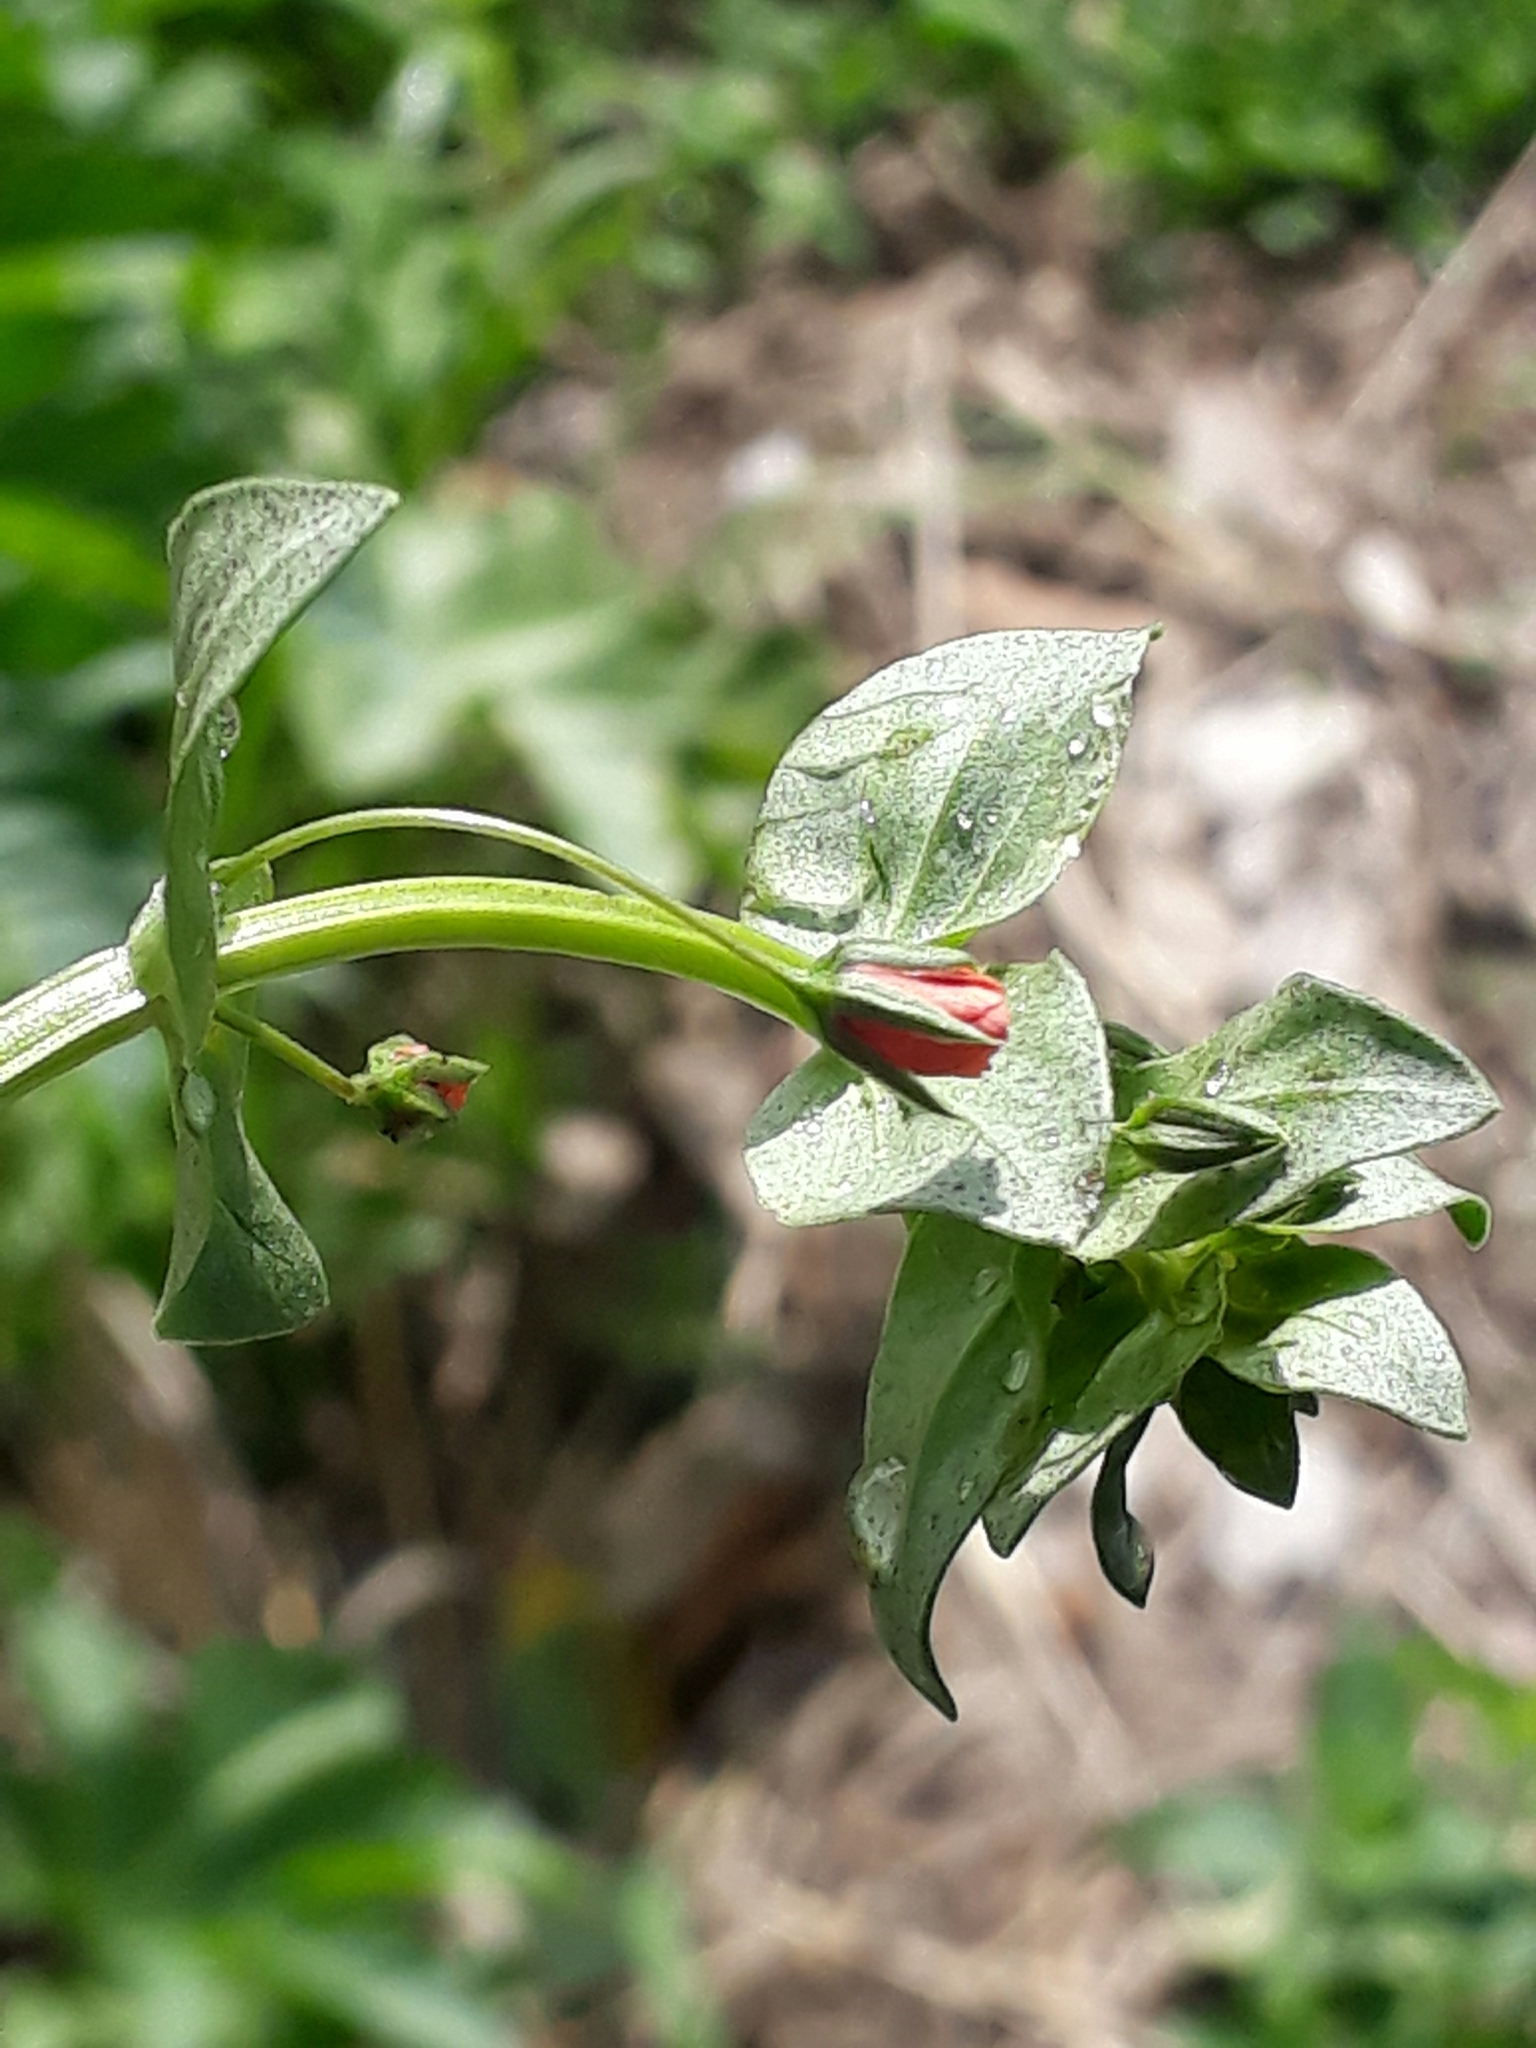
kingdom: Plantae
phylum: Tracheophyta
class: Magnoliopsida
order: Ericales
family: Primulaceae
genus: Lysimachia
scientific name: Lysimachia arvensis
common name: Scarlet pimpernel
